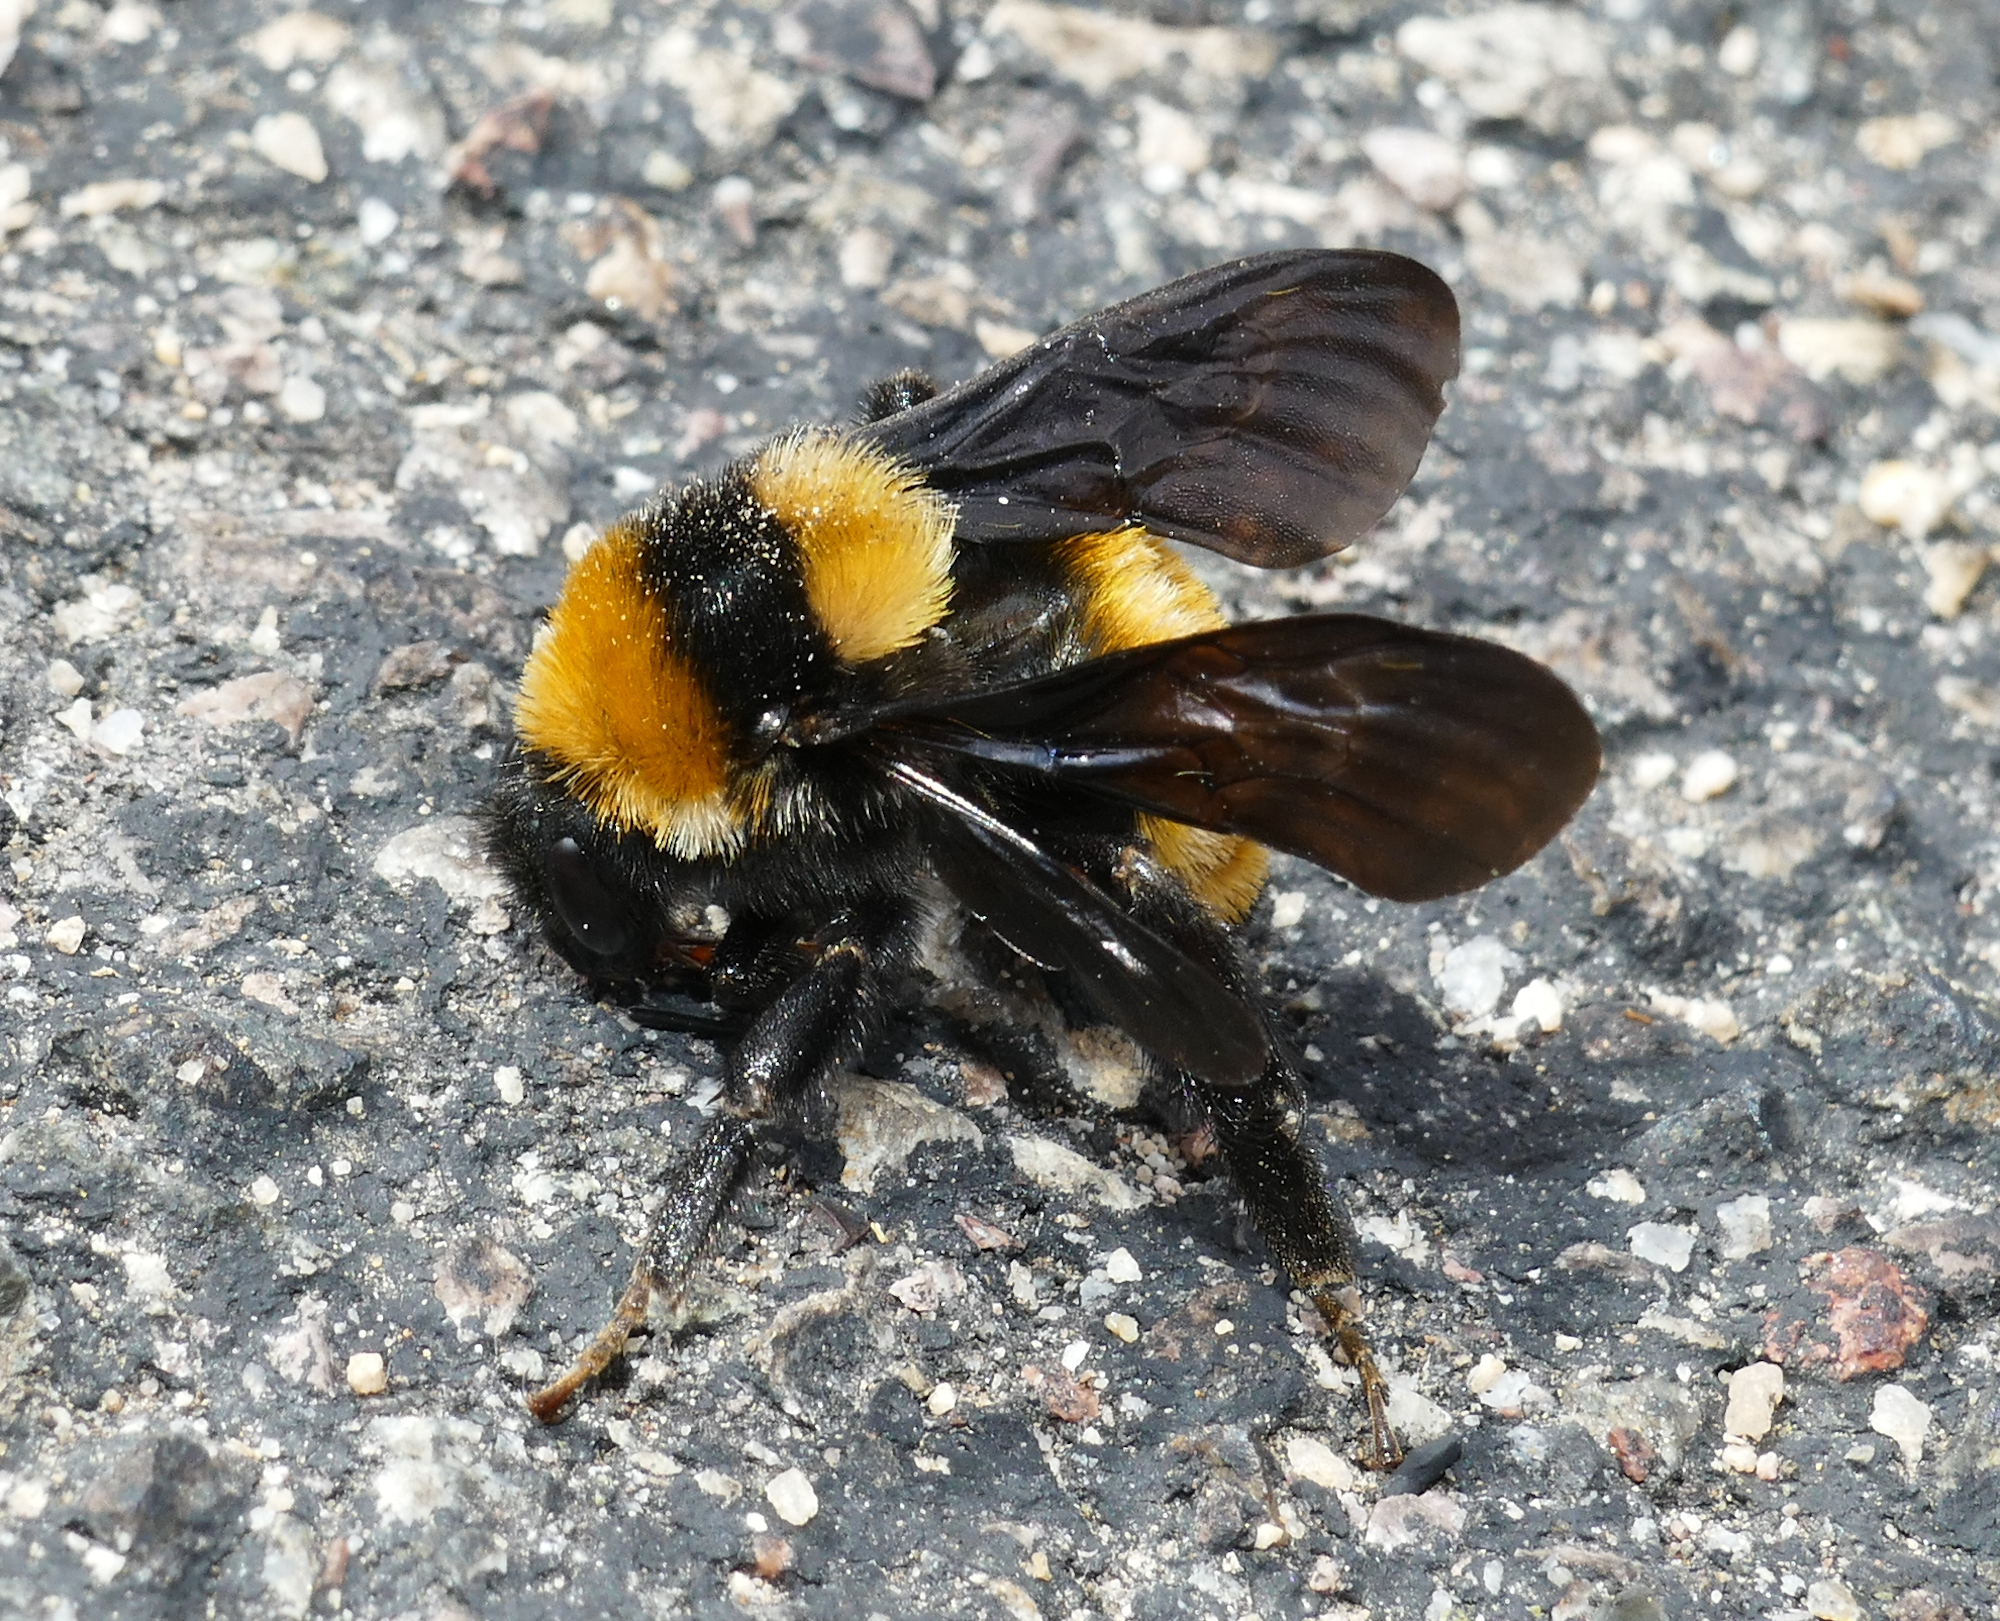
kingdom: Animalia
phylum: Arthropoda
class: Insecta
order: Hymenoptera
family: Apidae
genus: Bombus
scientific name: Bombus sonorus
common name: Sonoran bumble bee
